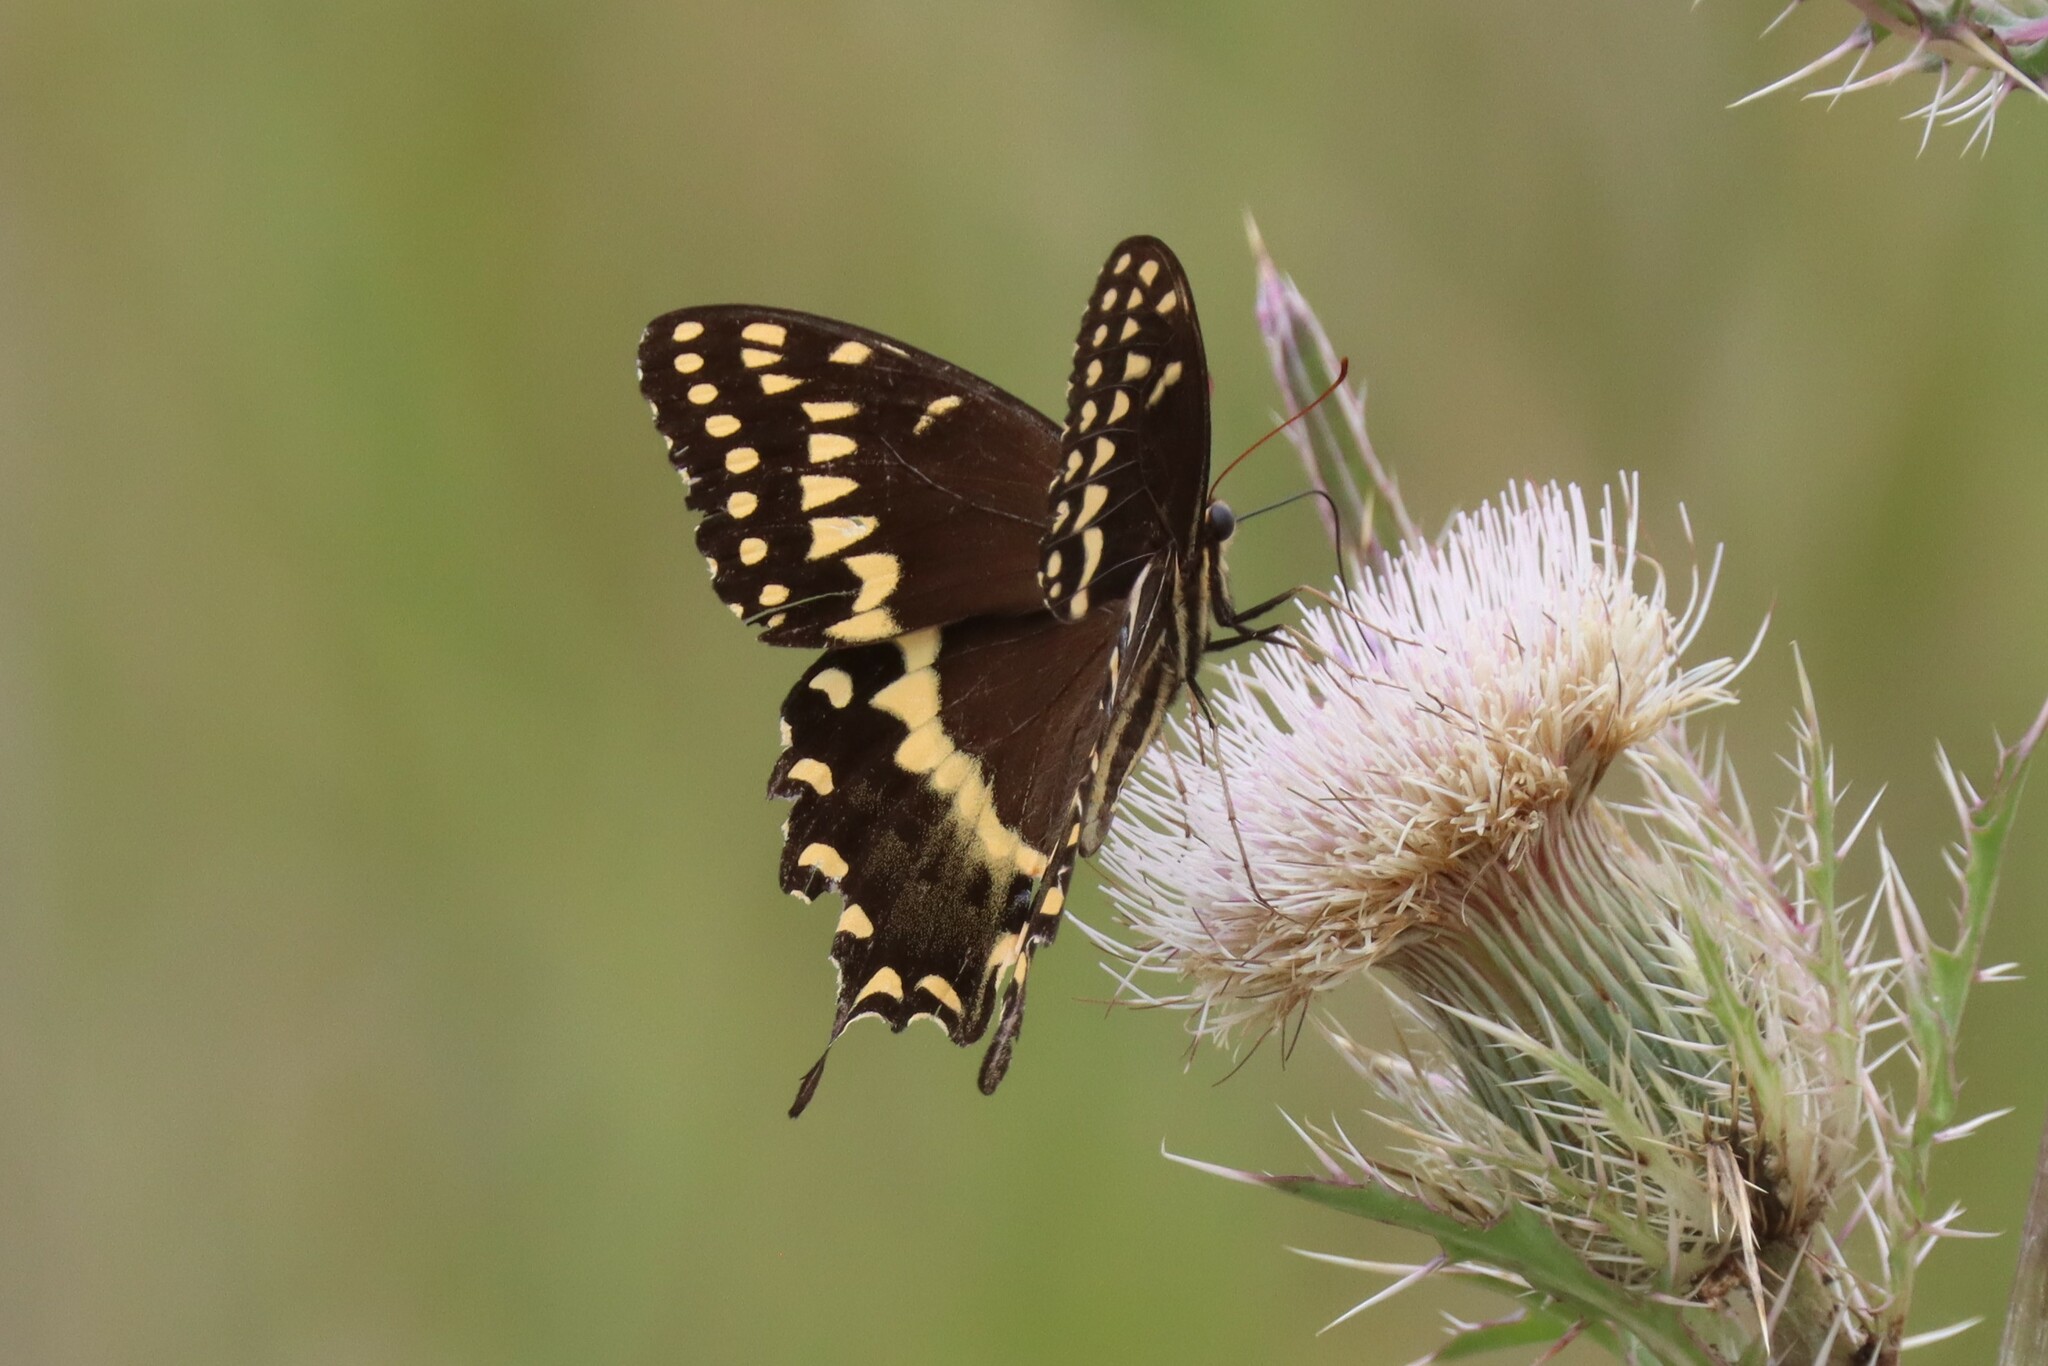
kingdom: Animalia
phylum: Arthropoda
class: Insecta
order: Lepidoptera
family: Papilionidae
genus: Papilio
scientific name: Papilio palamedes
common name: Palamedes swallowtail
